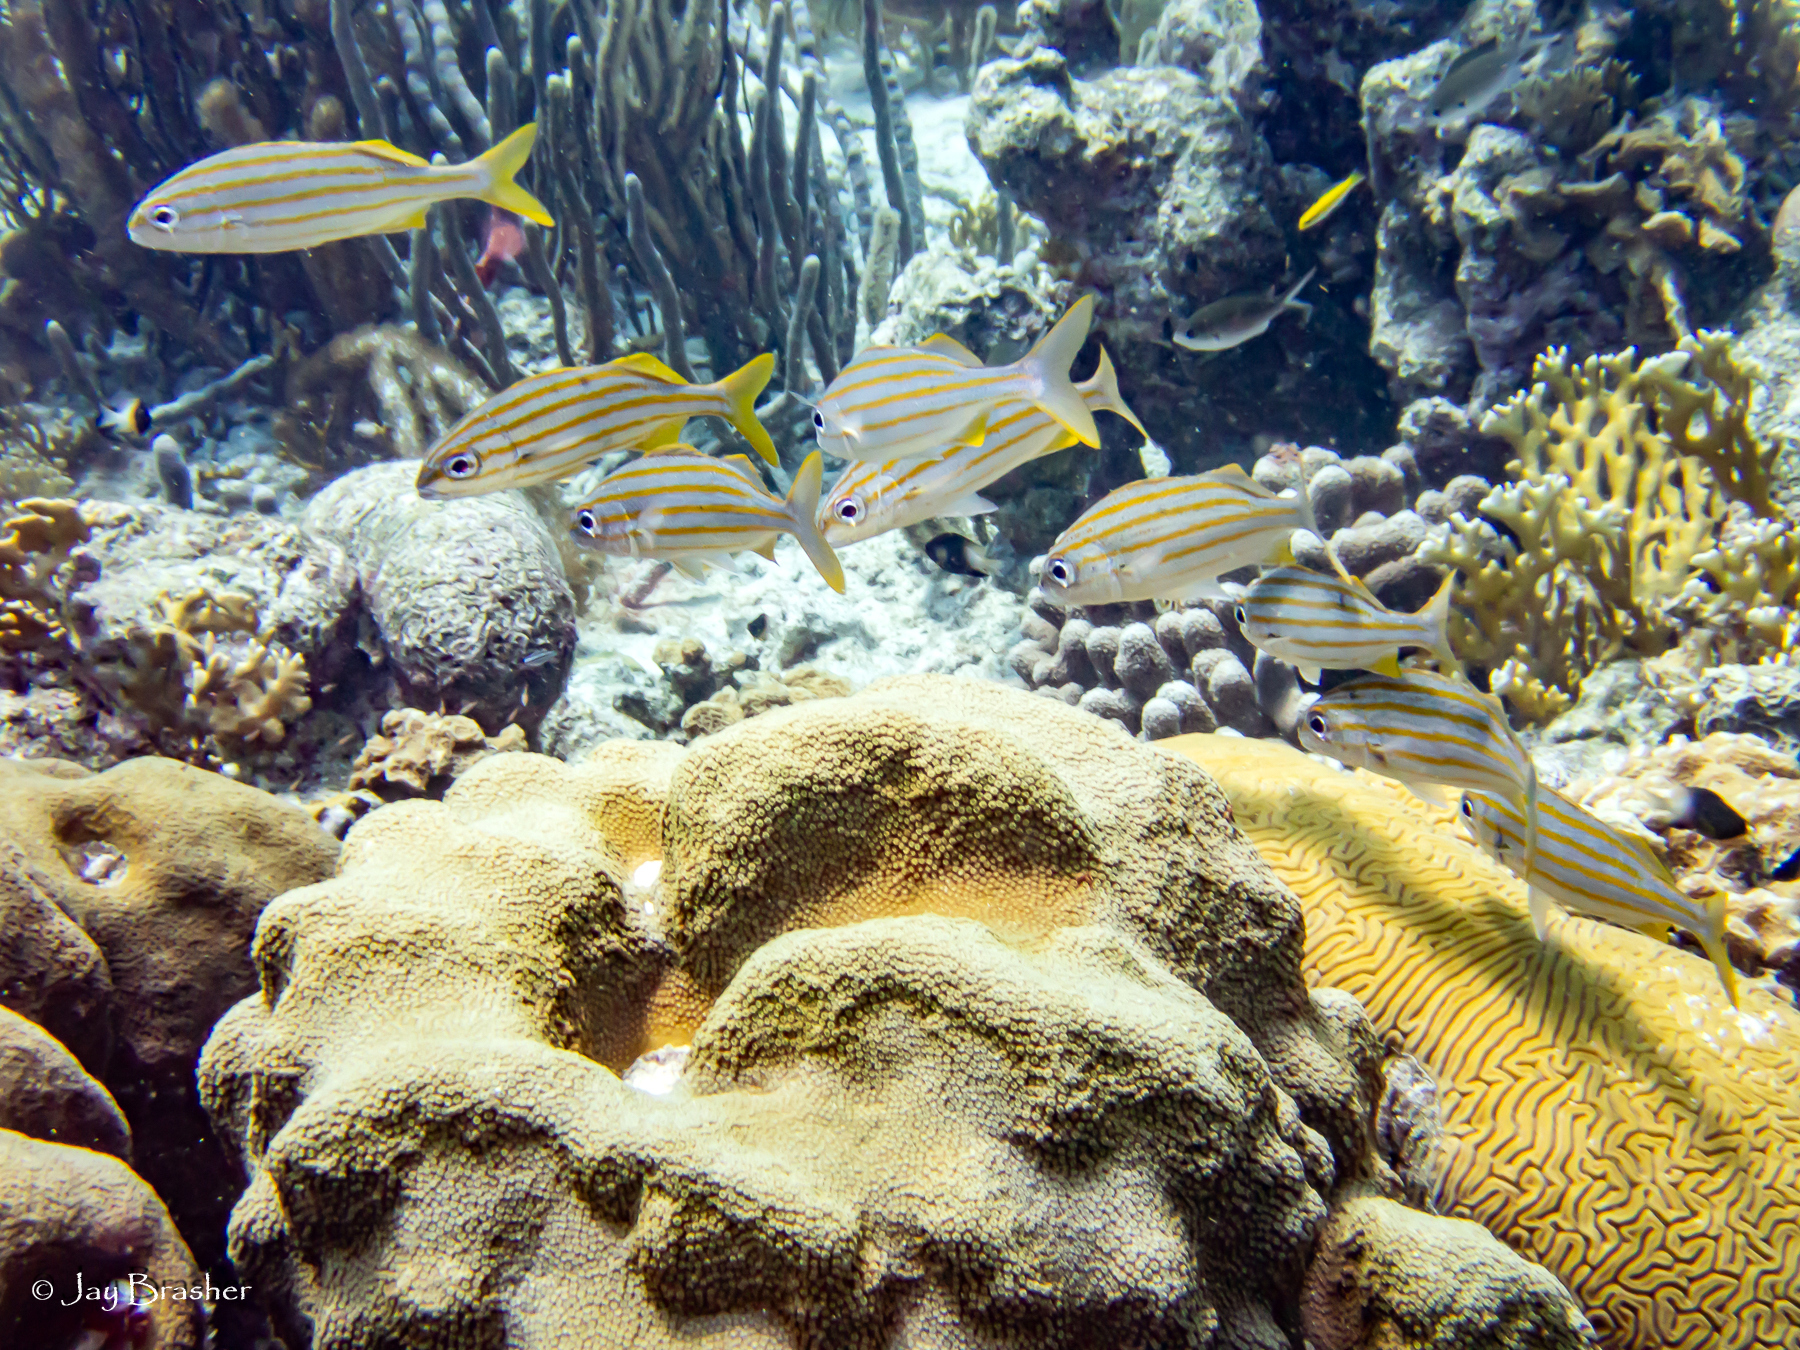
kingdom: Animalia
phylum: Cnidaria
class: Anthozoa
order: Scleractinia
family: Merulinidae
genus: Orbicella
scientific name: Orbicella faveolata
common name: Mountainous star coral
